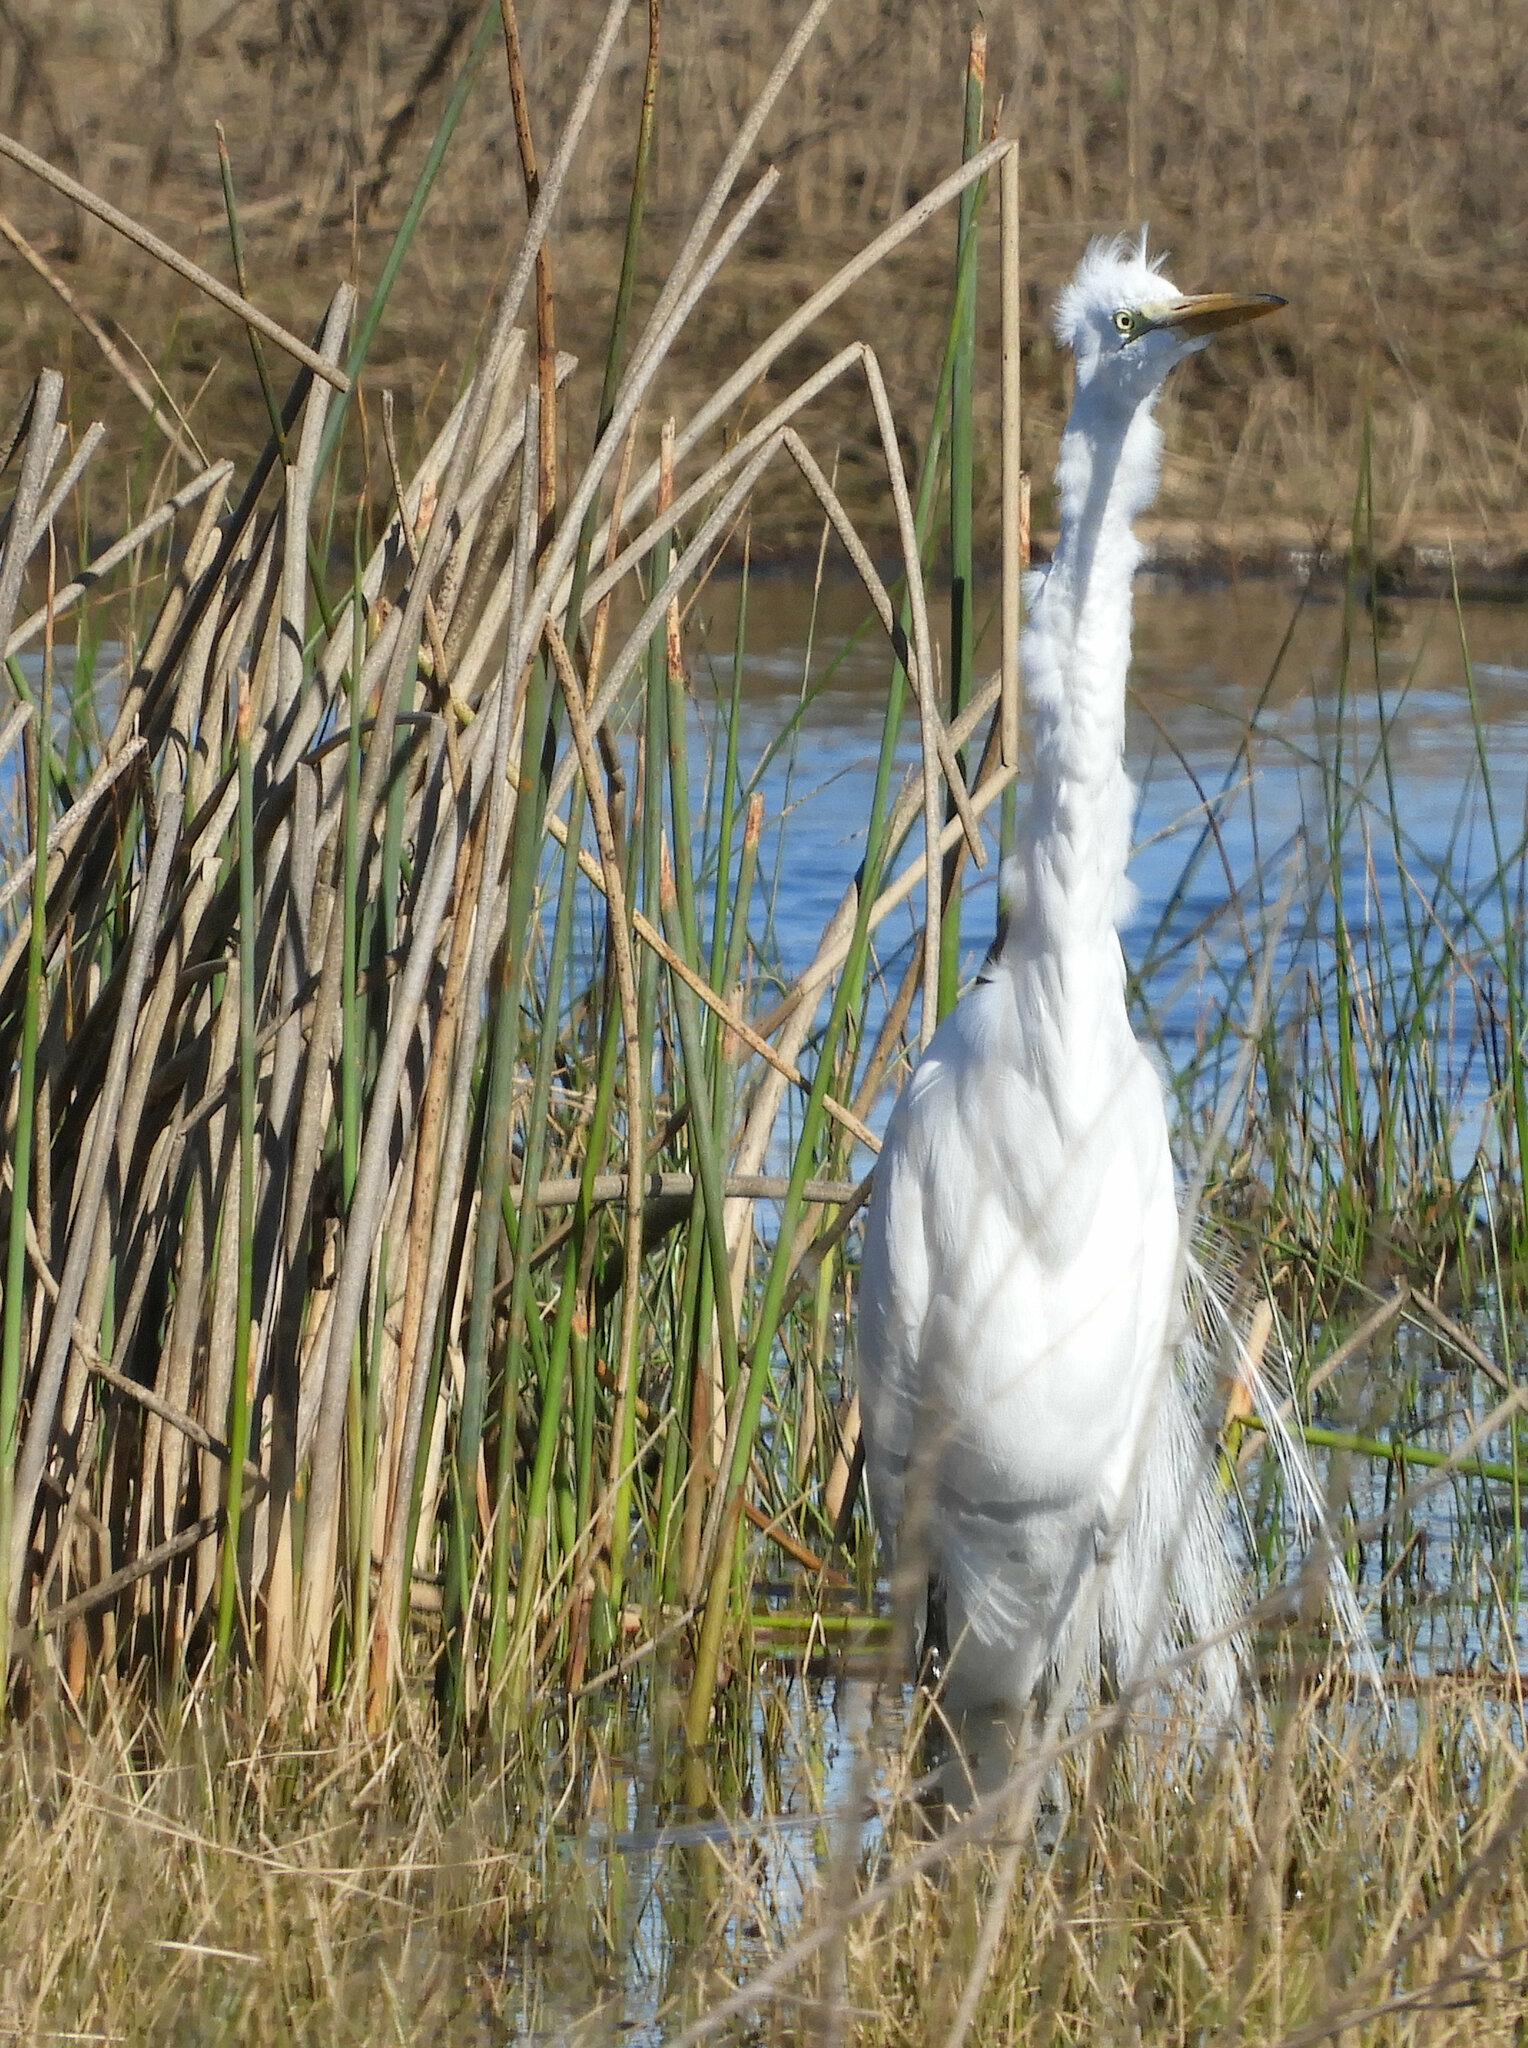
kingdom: Animalia
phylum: Chordata
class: Aves
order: Pelecaniformes
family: Ardeidae
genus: Ardea
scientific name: Ardea alba
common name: Great egret
